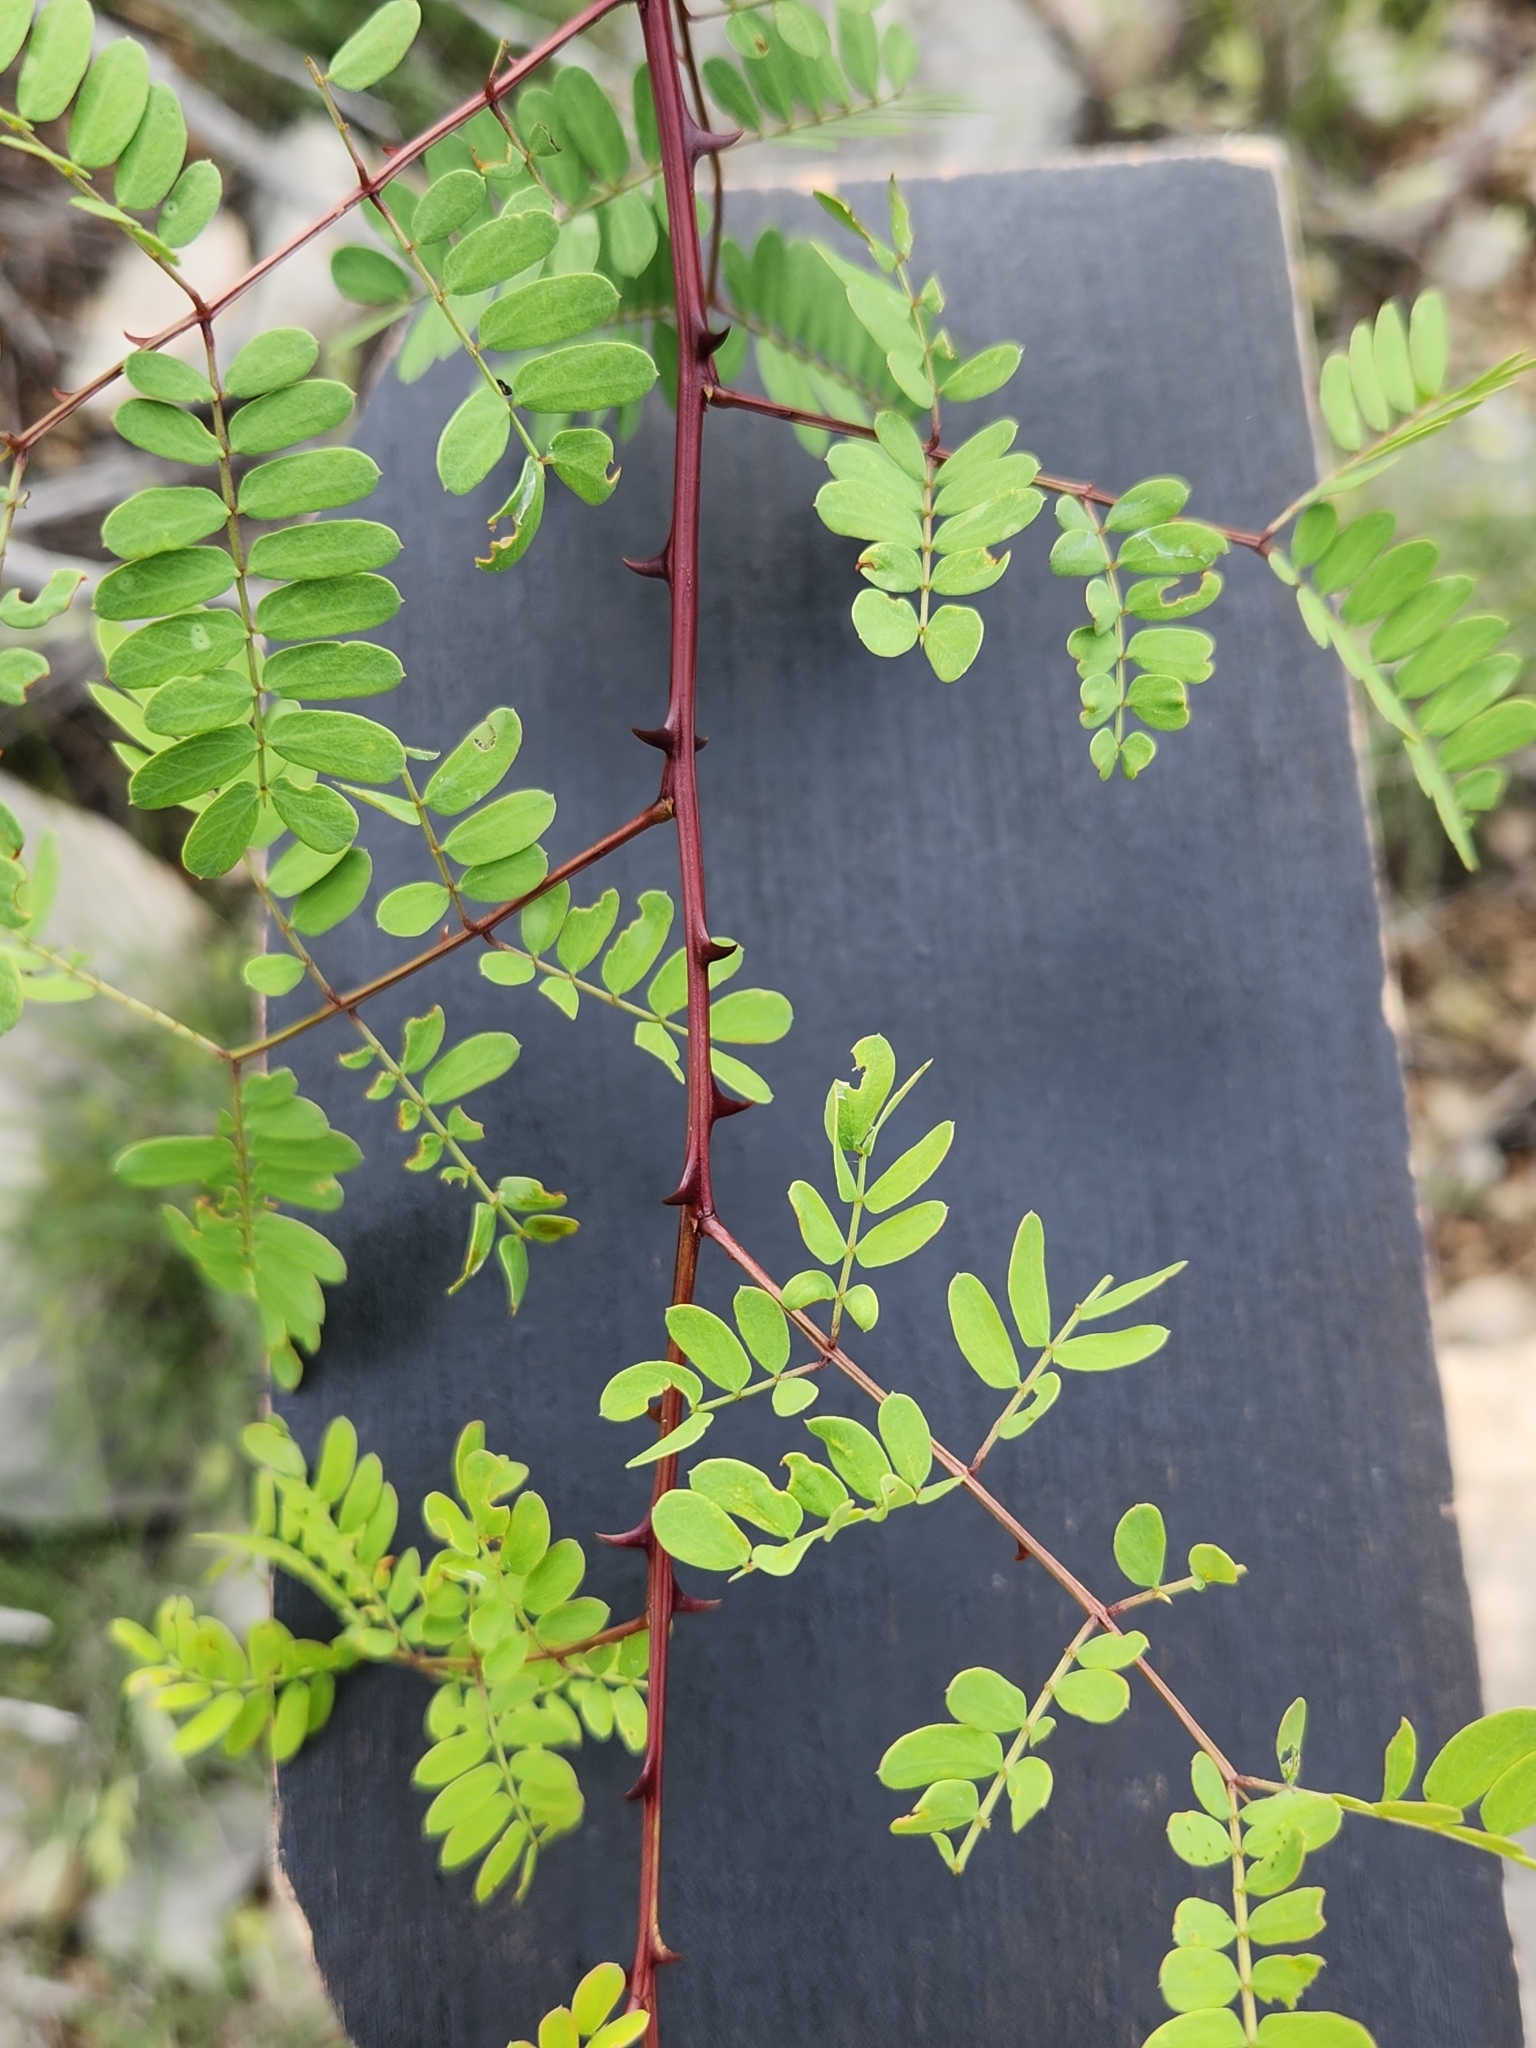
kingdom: Plantae
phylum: Tracheophyta
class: Magnoliopsida
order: Fabales
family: Fabaceae
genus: Senegalia
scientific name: Senegalia roemeriana
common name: Roemer's acacia
